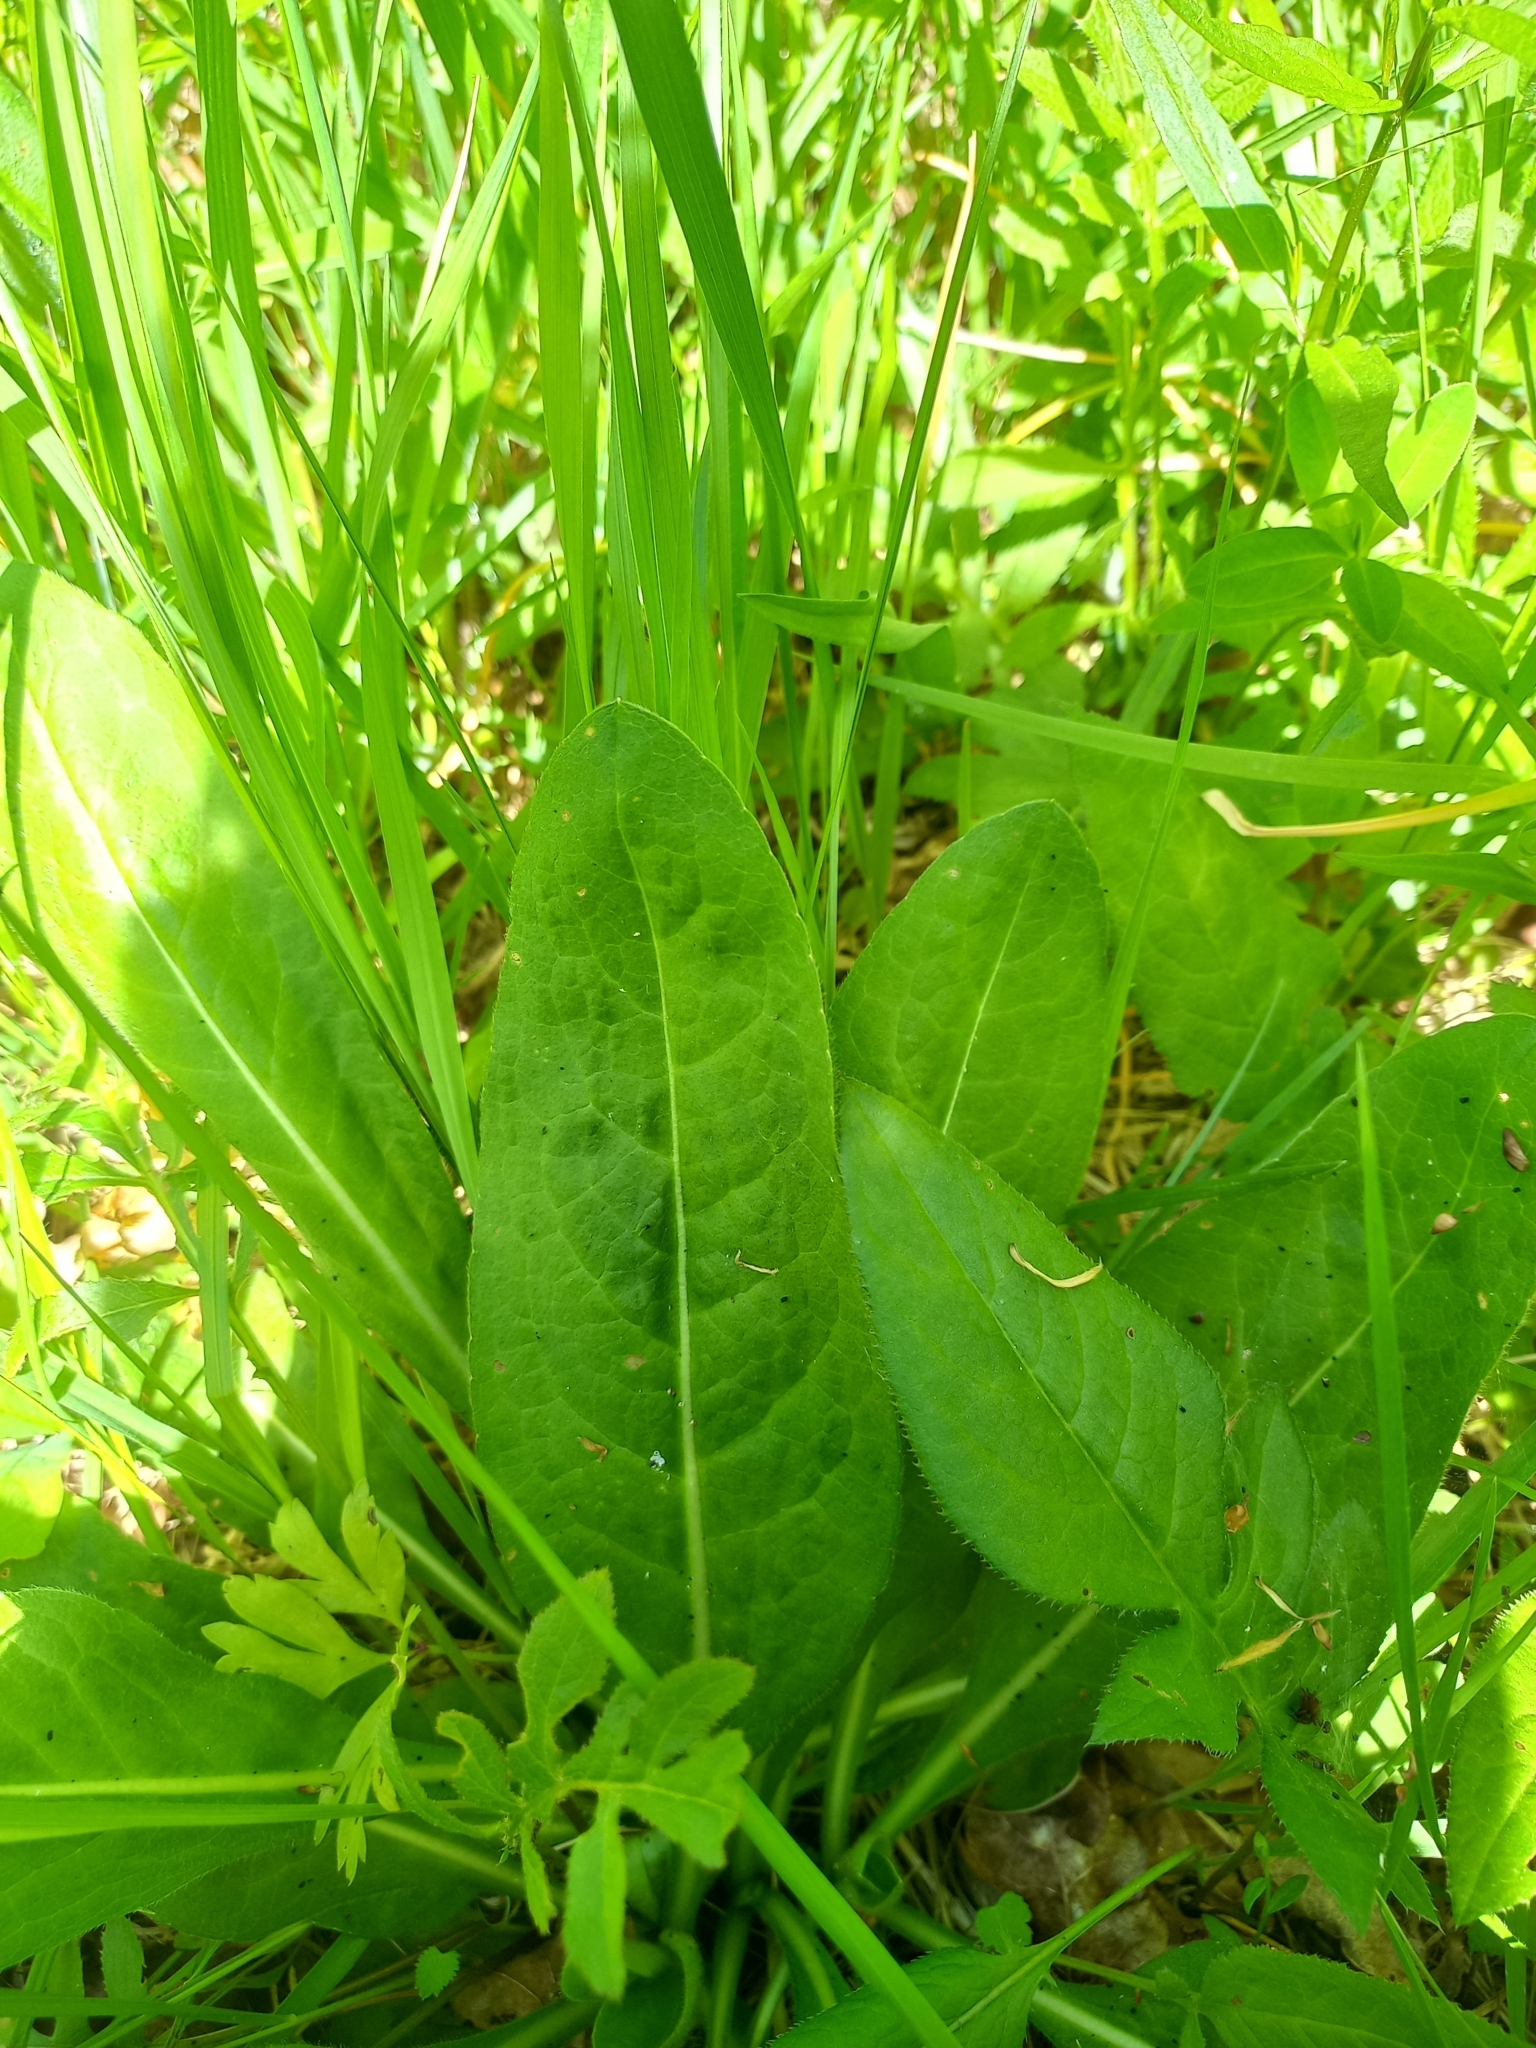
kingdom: Plantae
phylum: Tracheophyta
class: Magnoliopsida
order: Dipsacales
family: Caprifoliaceae
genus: Succisa
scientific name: Succisa pratensis
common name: Devil's-bit
